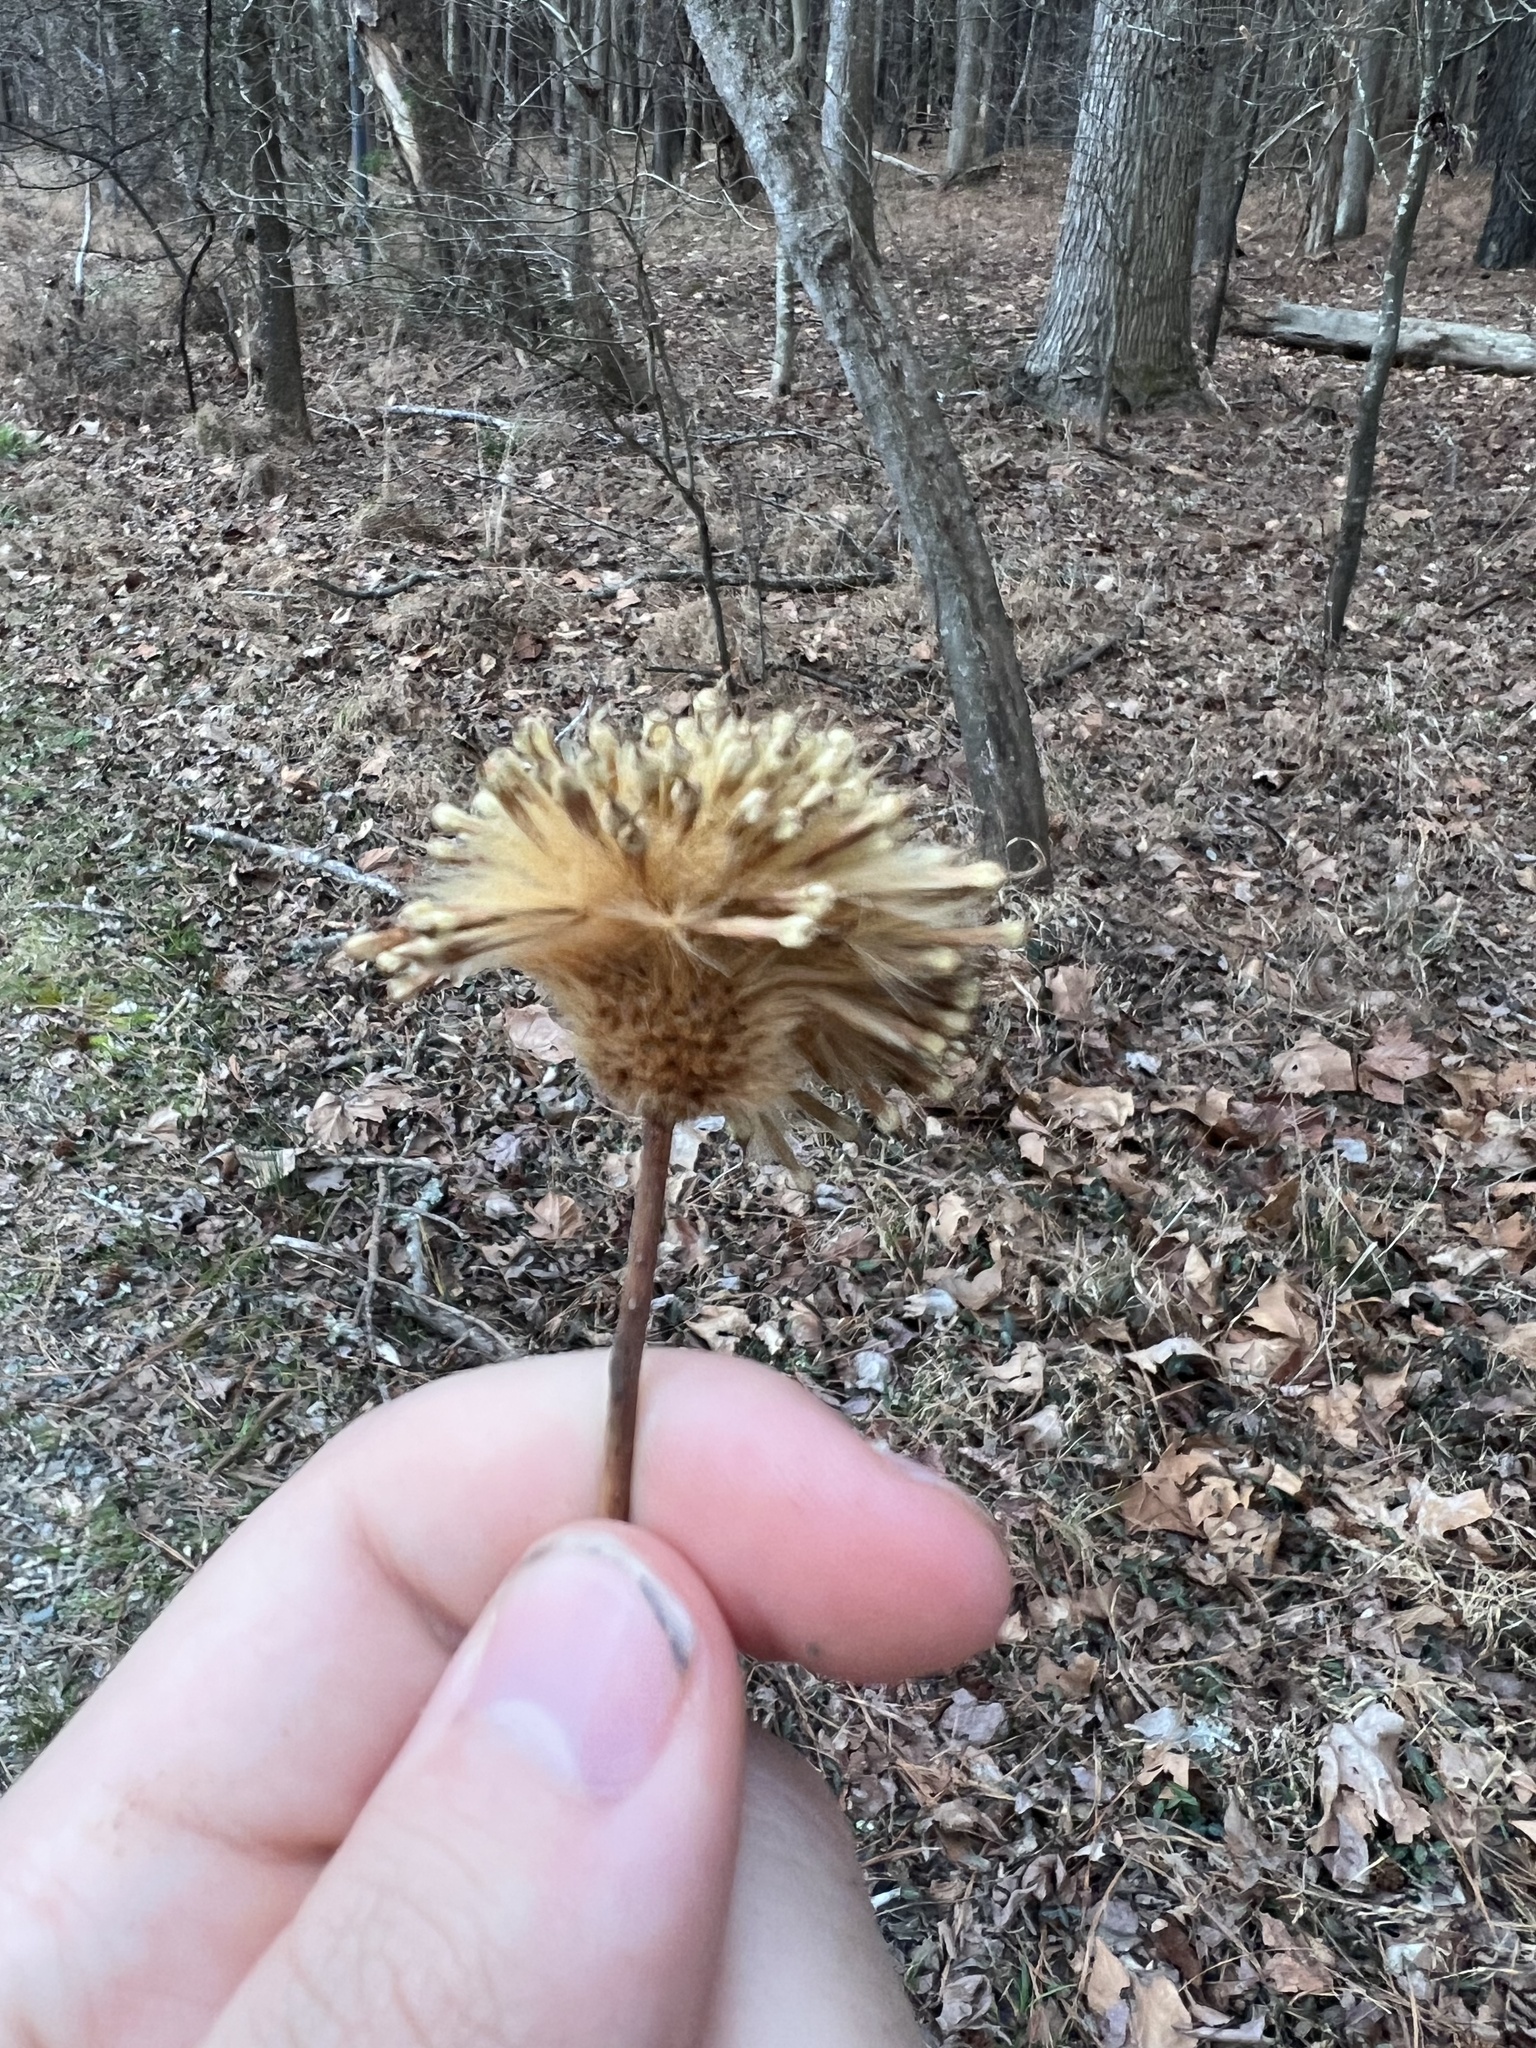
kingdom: Plantae
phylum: Tracheophyta
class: Magnoliopsida
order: Proteales
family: Platanaceae
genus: Platanus
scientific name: Platanus occidentalis
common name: American sycamore
